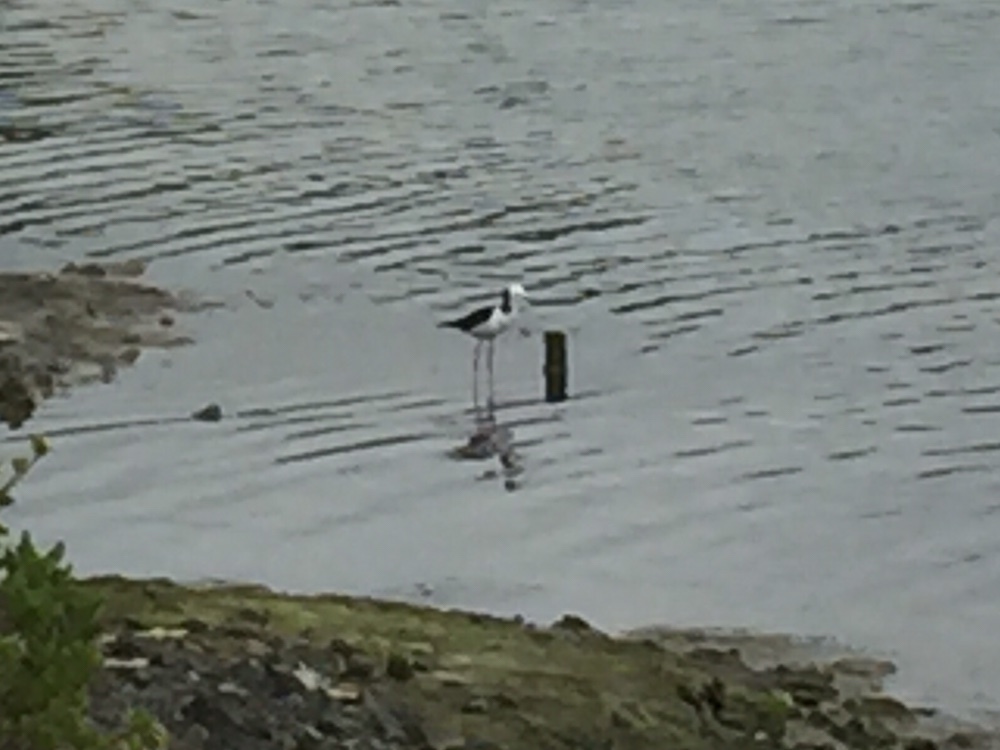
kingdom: Animalia
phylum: Chordata
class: Aves
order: Charadriiformes
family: Recurvirostridae
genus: Himantopus
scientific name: Himantopus leucocephalus
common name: White-headed stilt
